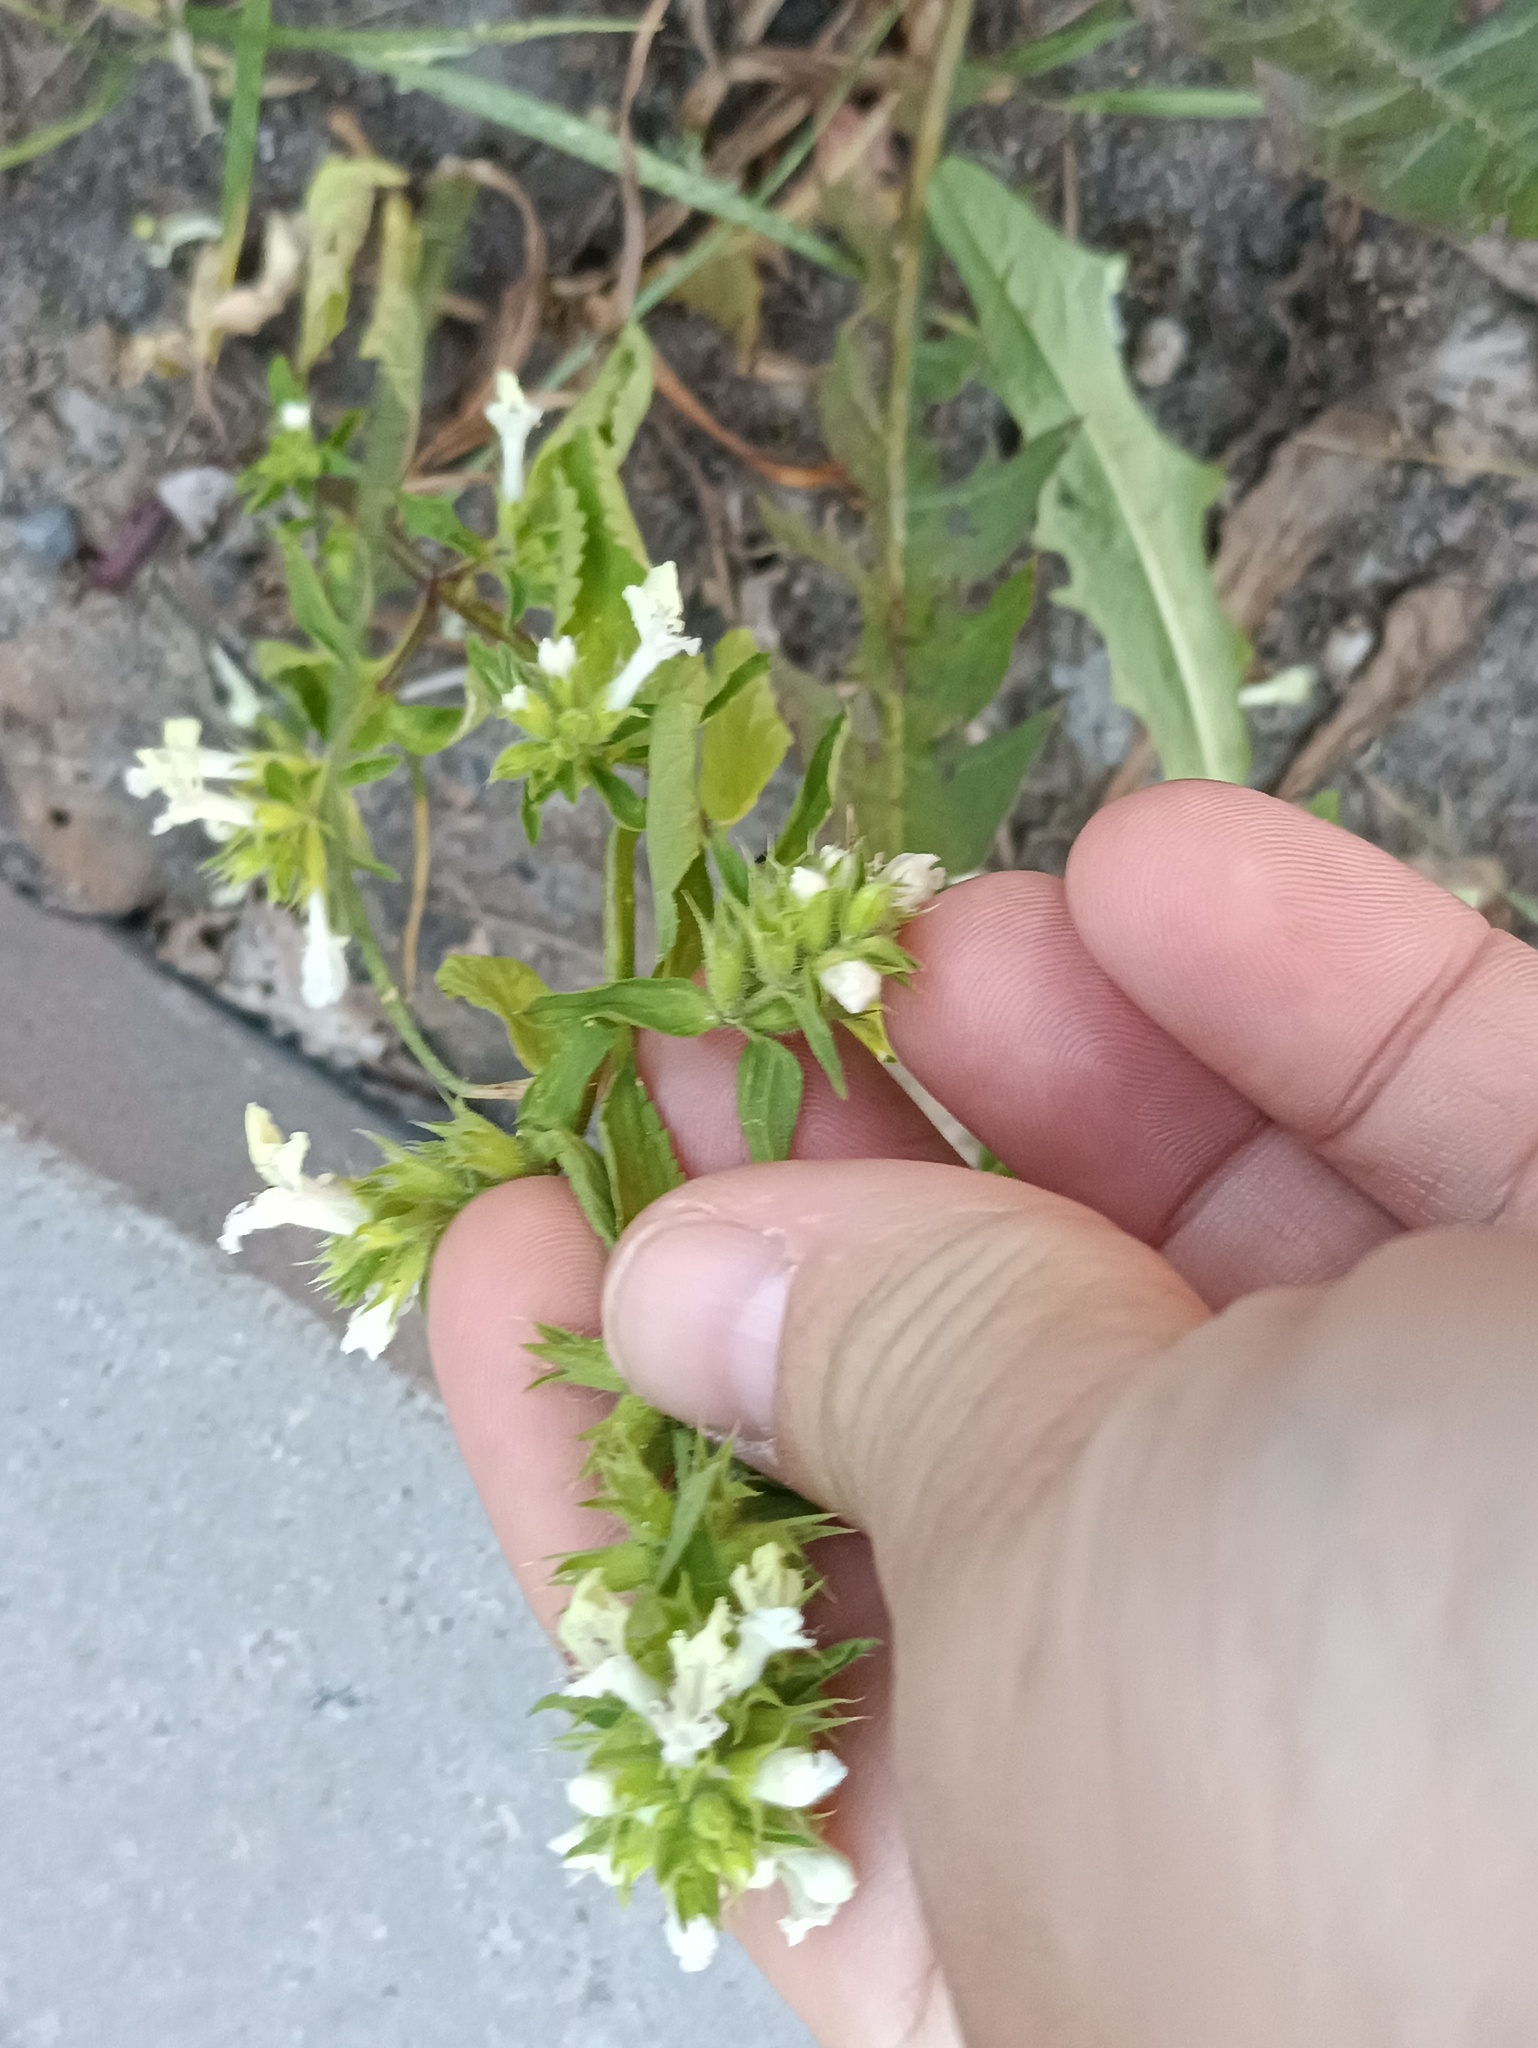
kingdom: Plantae
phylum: Tracheophyta
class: Magnoliopsida
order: Lamiales
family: Lamiaceae
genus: Stachys
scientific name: Stachys annua
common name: Annual yellow-woundwort
